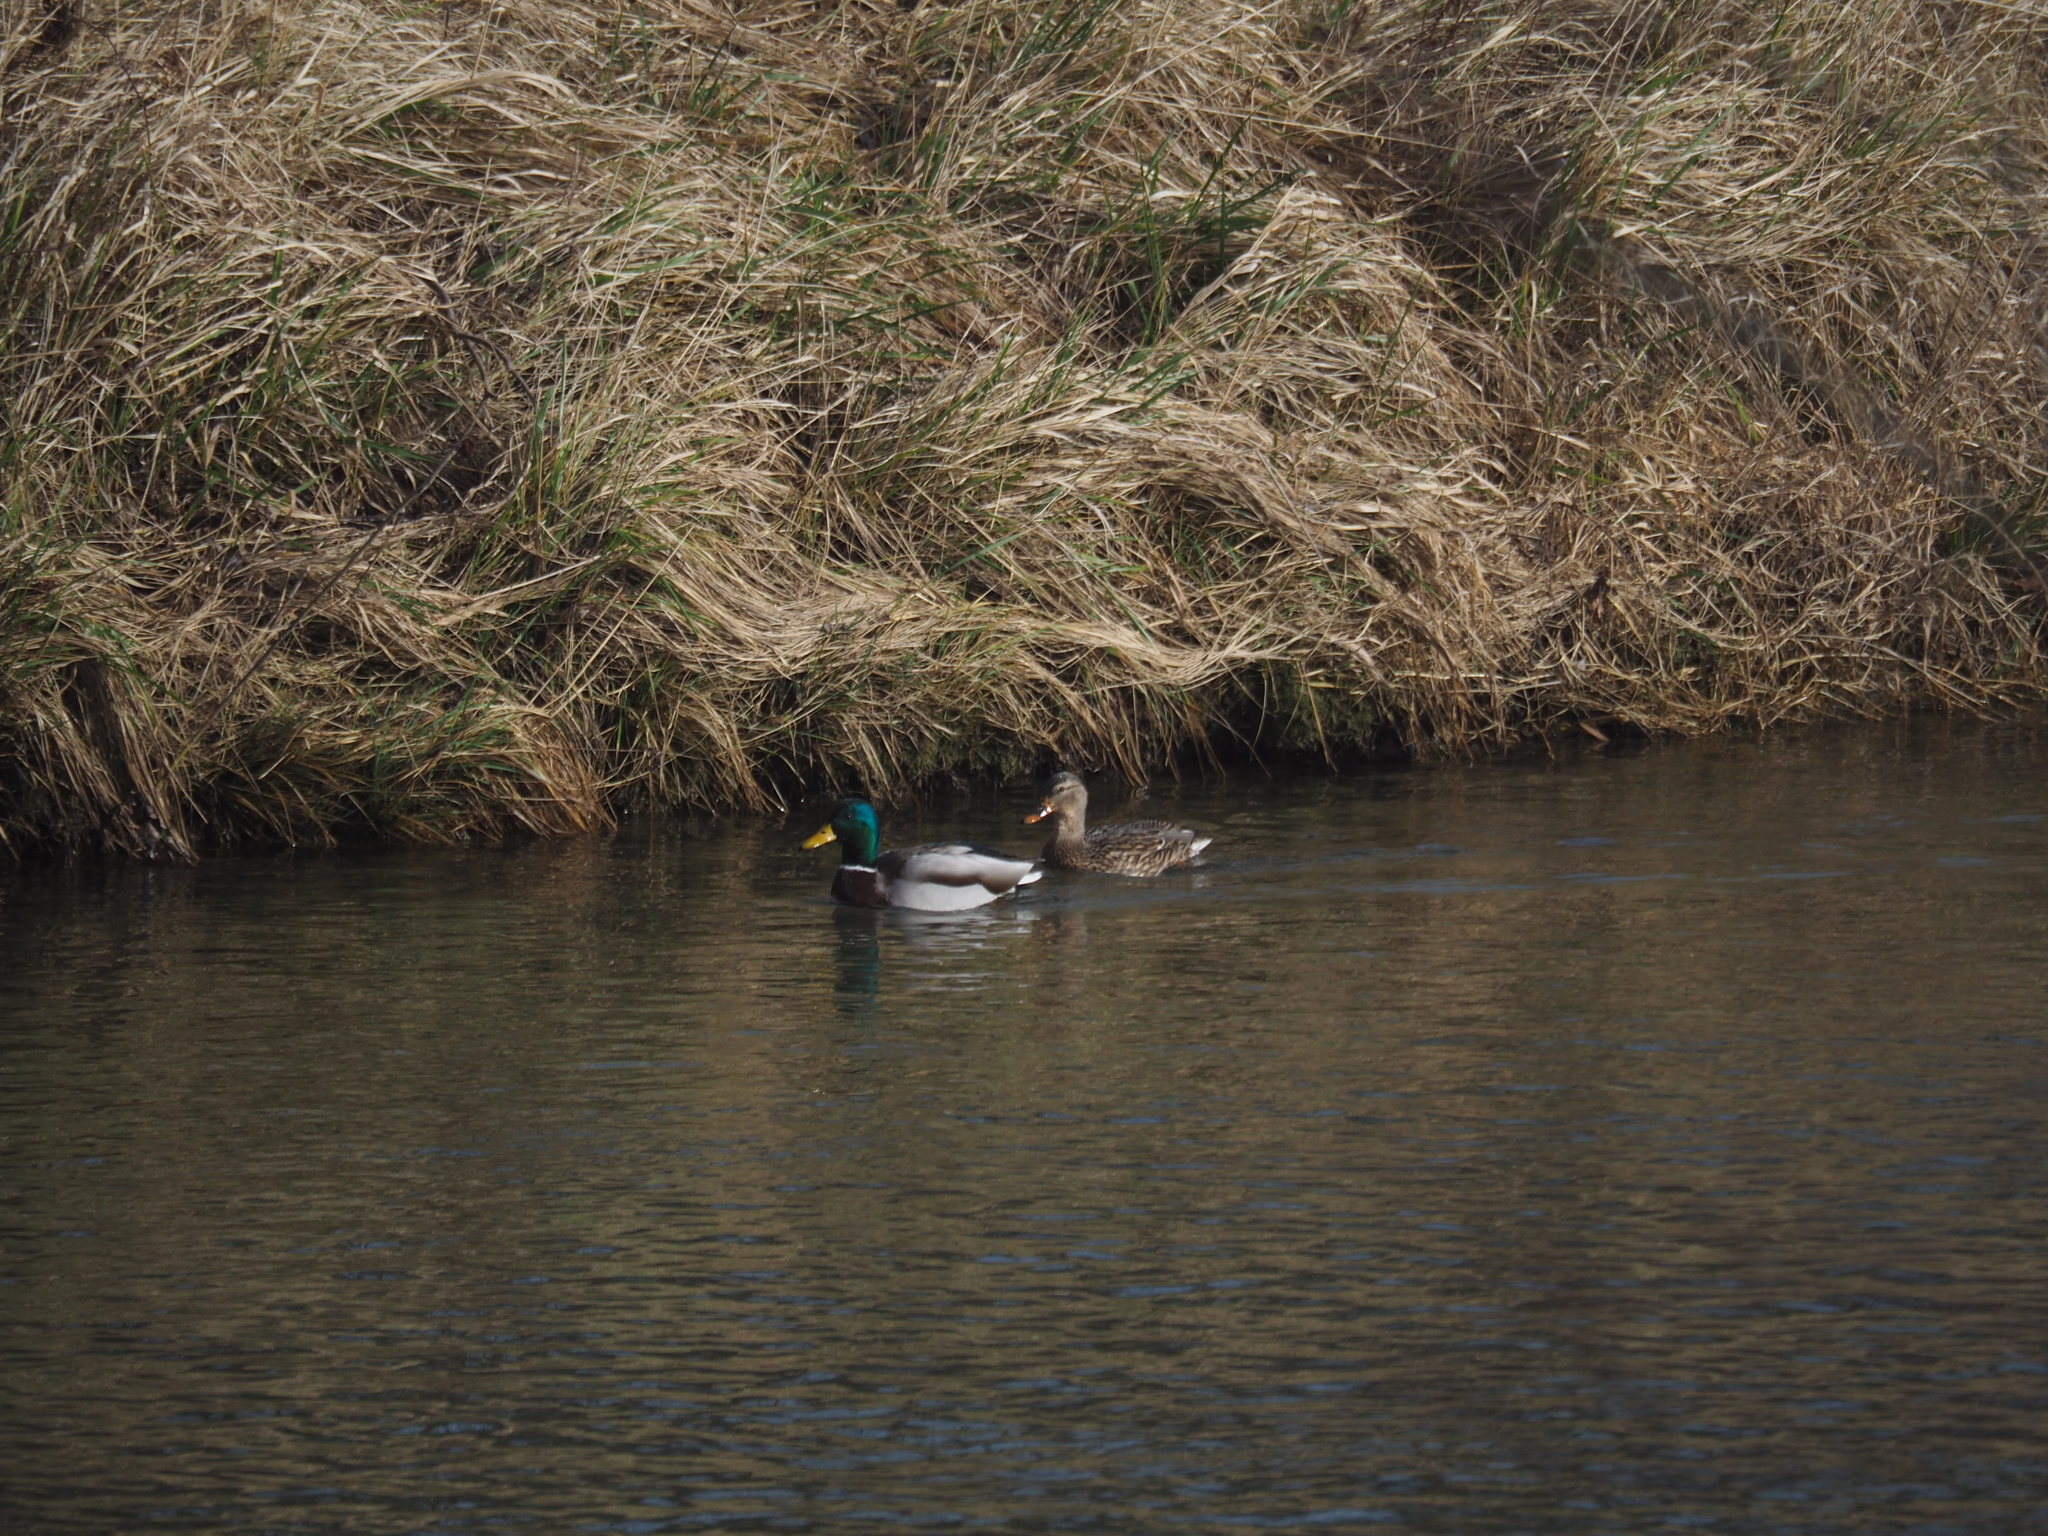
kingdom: Animalia
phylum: Chordata
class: Aves
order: Anseriformes
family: Anatidae
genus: Anas
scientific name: Anas platyrhynchos
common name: Mallard
